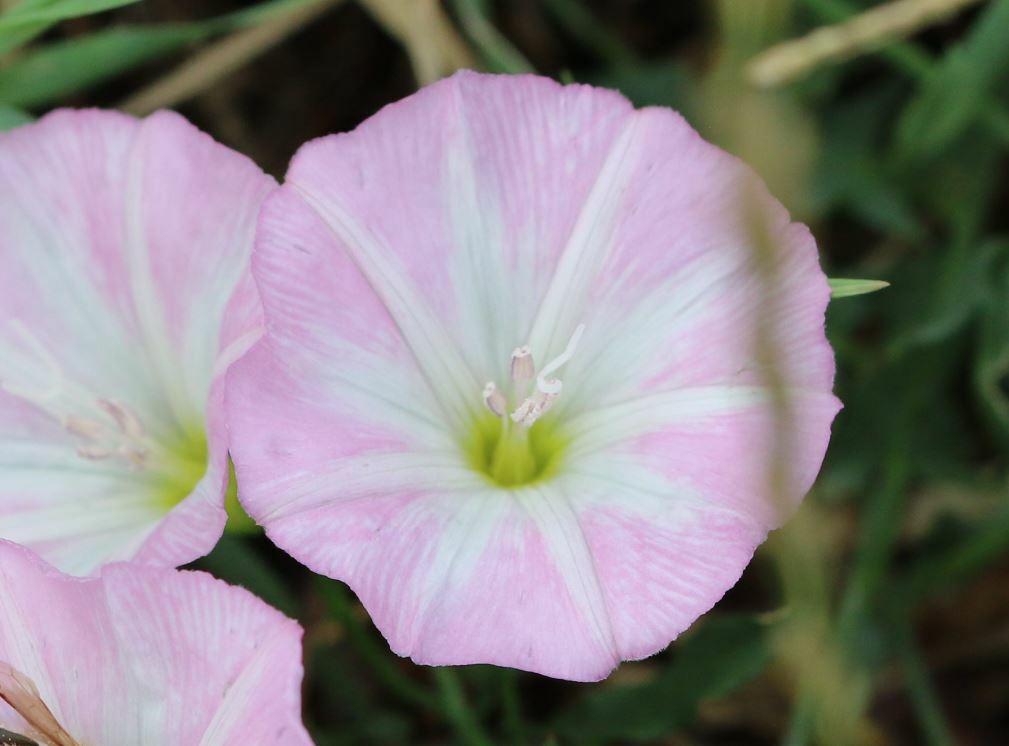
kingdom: Plantae
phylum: Tracheophyta
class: Magnoliopsida
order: Solanales
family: Convolvulaceae
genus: Convolvulus
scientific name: Convolvulus arvensis
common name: Field bindweed
